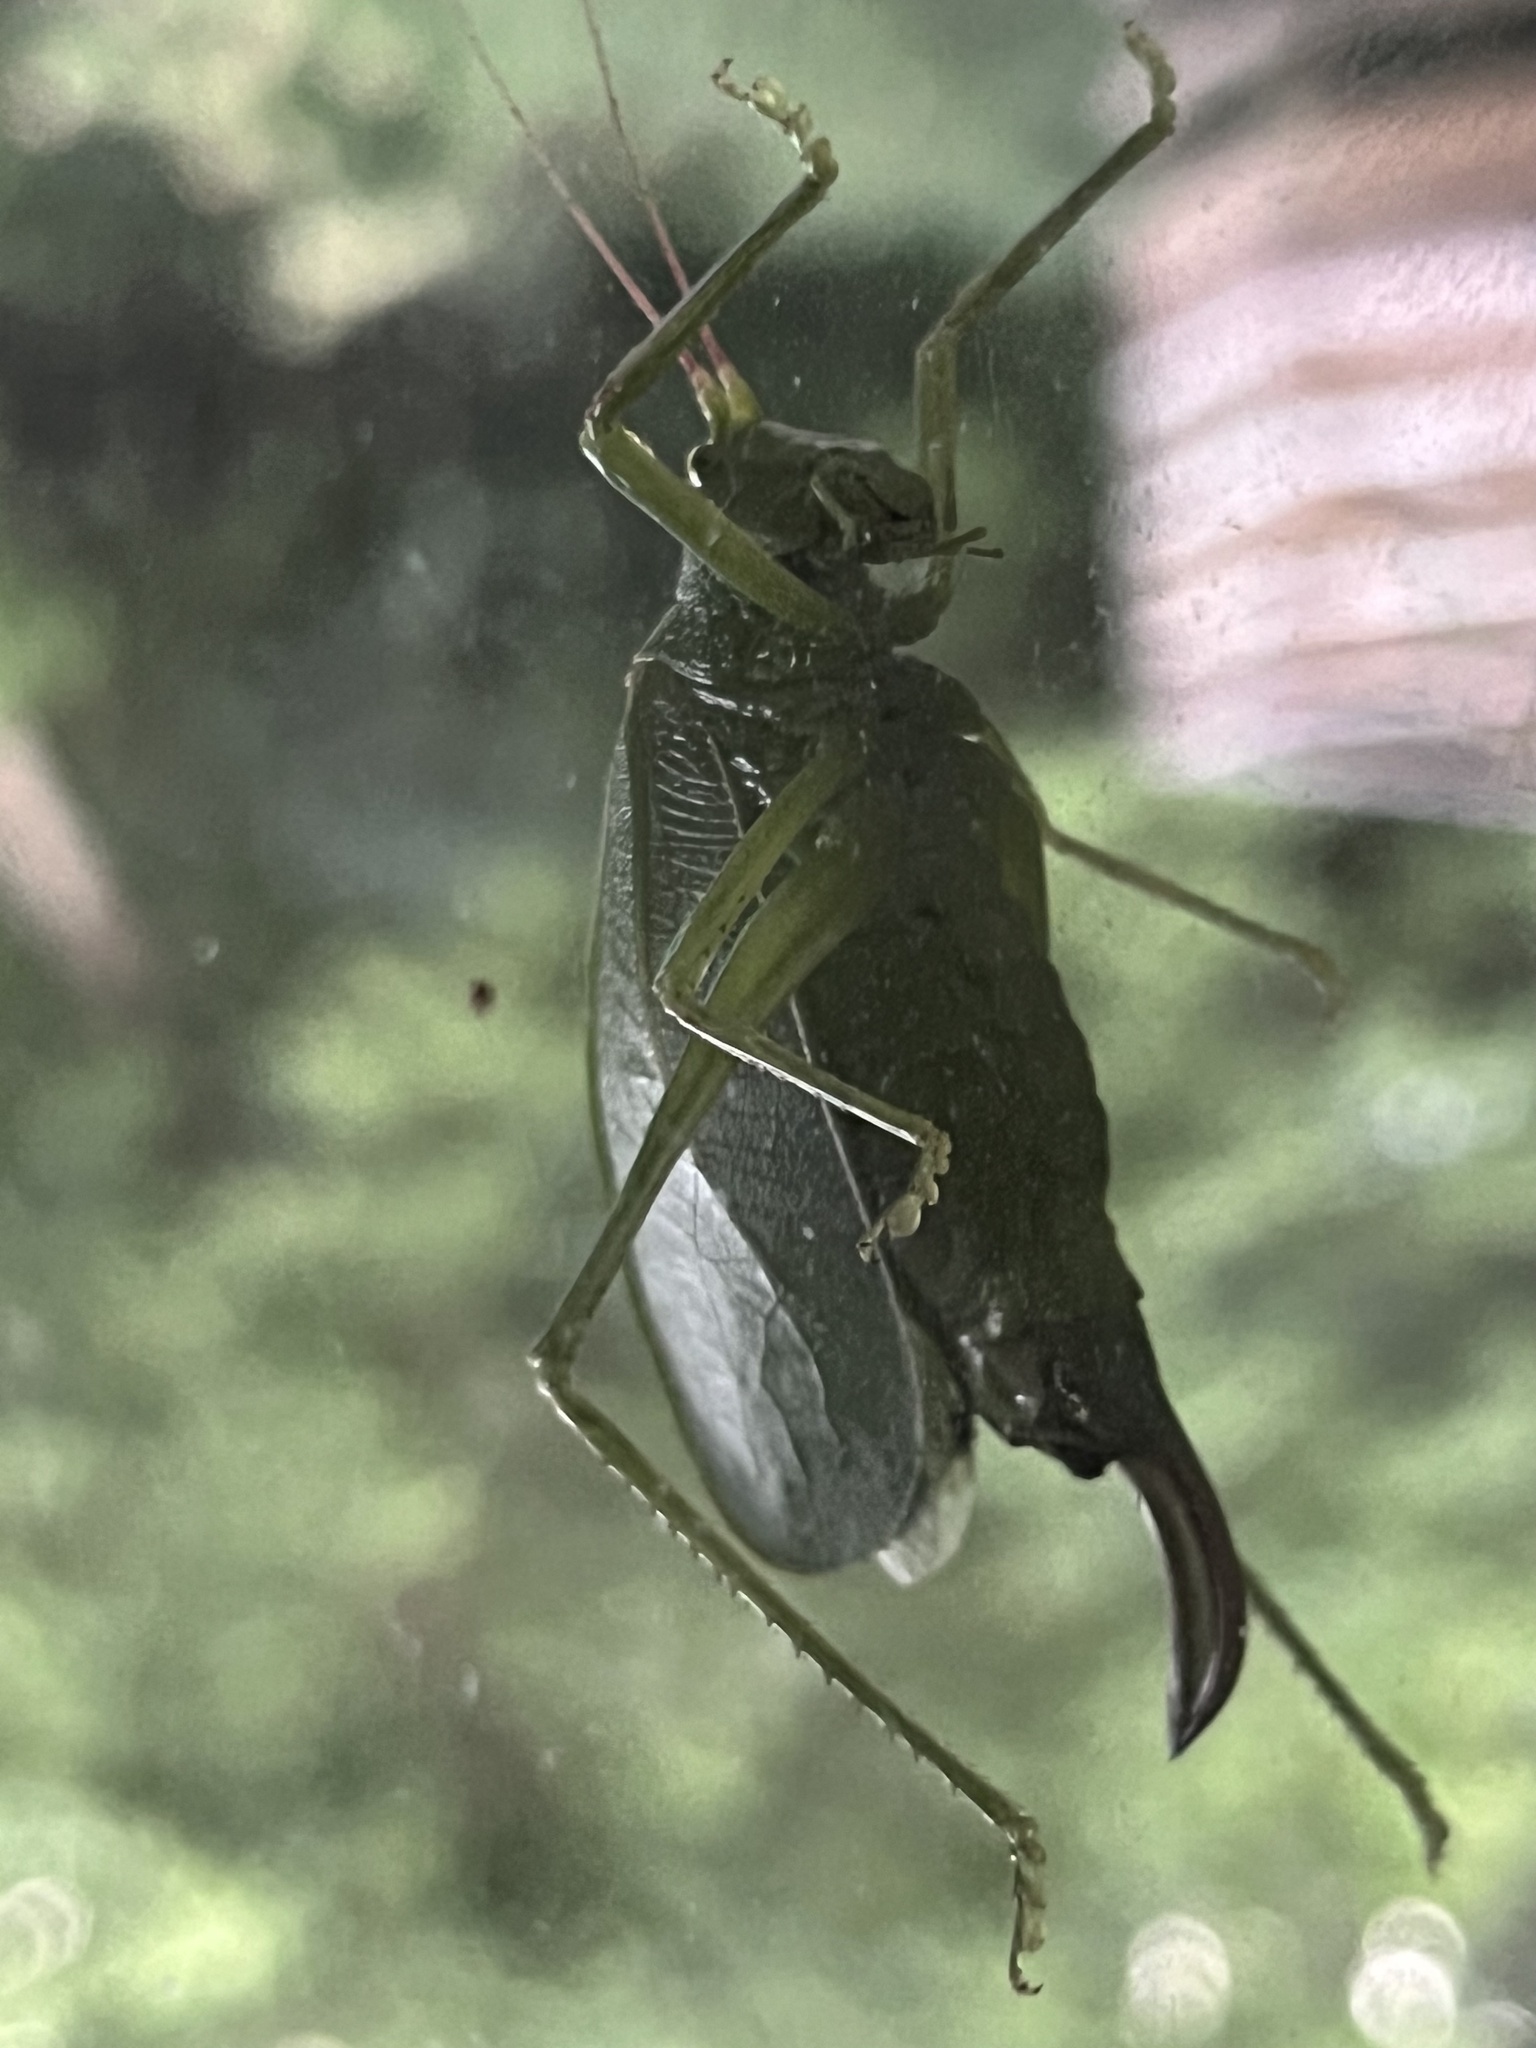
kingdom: Animalia
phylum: Arthropoda
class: Insecta
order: Orthoptera
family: Tettigoniidae
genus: Pterophylla
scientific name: Pterophylla camellifolia
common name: Common true katydid
